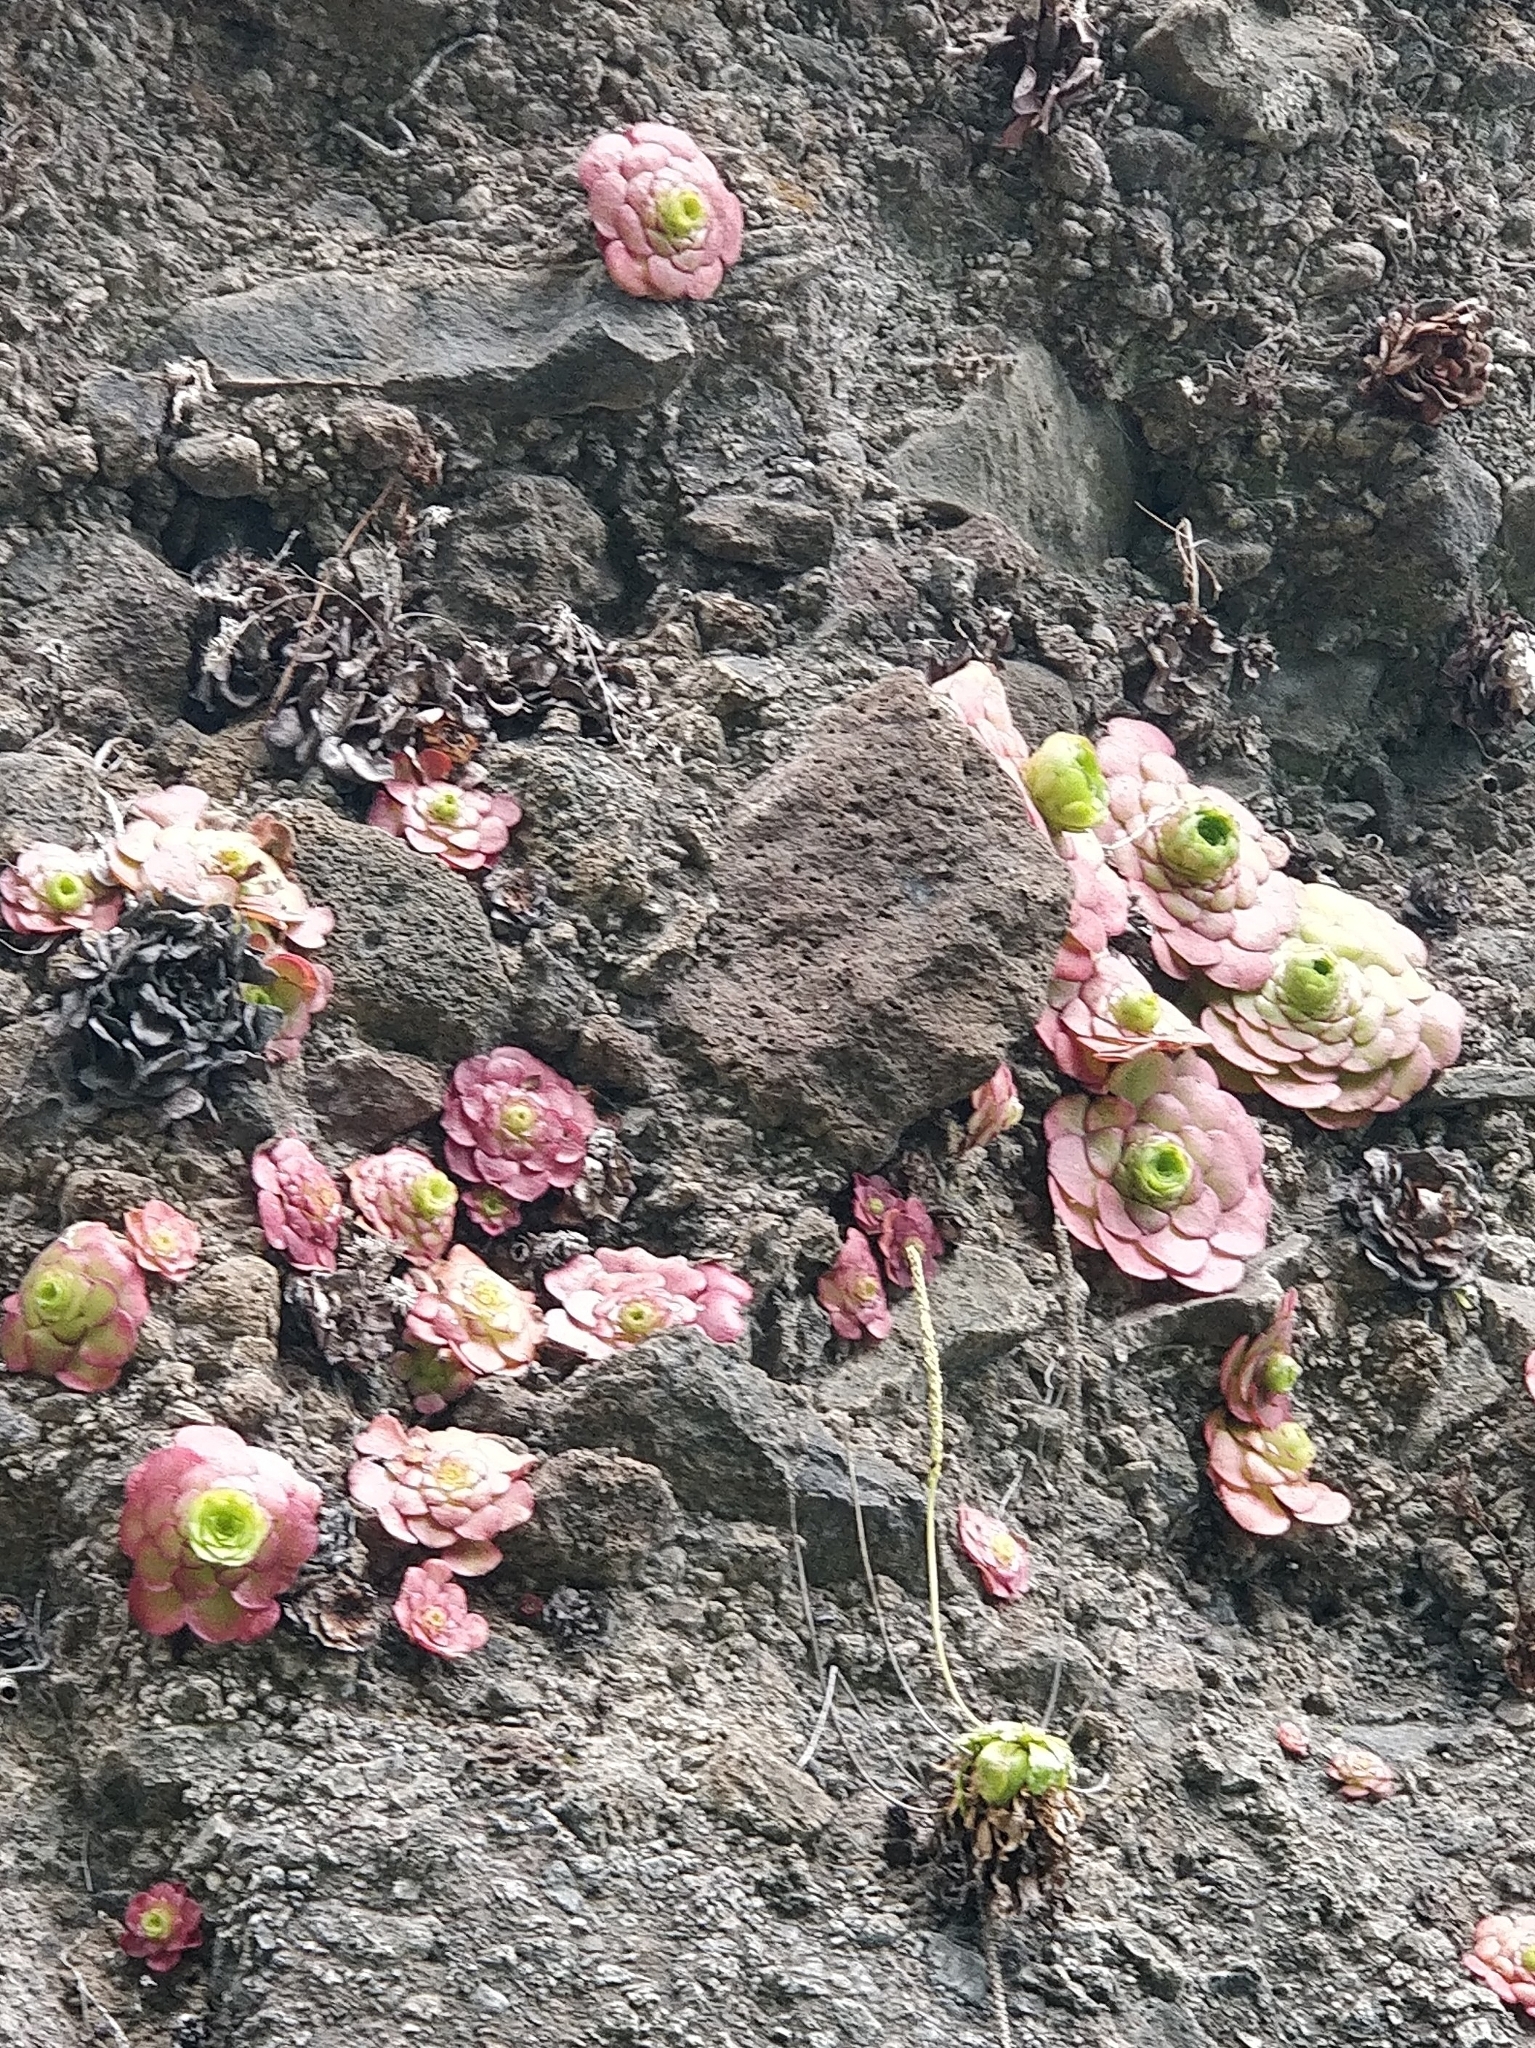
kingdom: Plantae
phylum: Tracheophyta
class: Magnoliopsida
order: Saxifragales
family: Crassulaceae
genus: Aeonium
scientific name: Aeonium glandulosum
